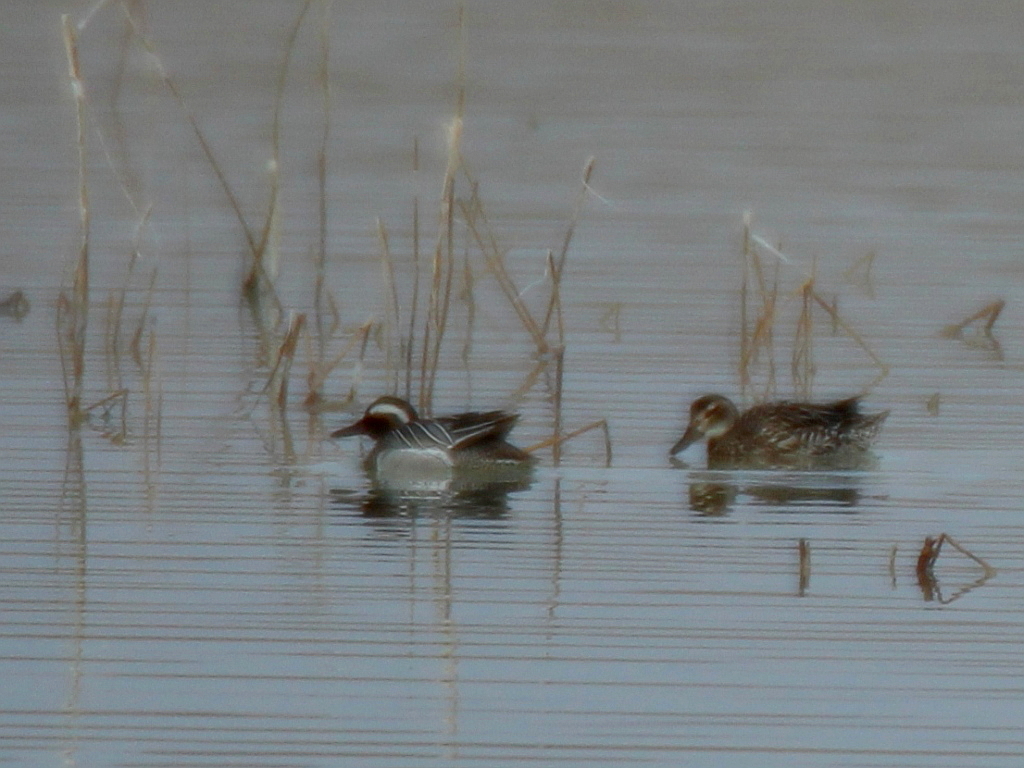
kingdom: Animalia
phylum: Chordata
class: Aves
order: Anseriformes
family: Anatidae
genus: Spatula
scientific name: Spatula querquedula
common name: Garganey
